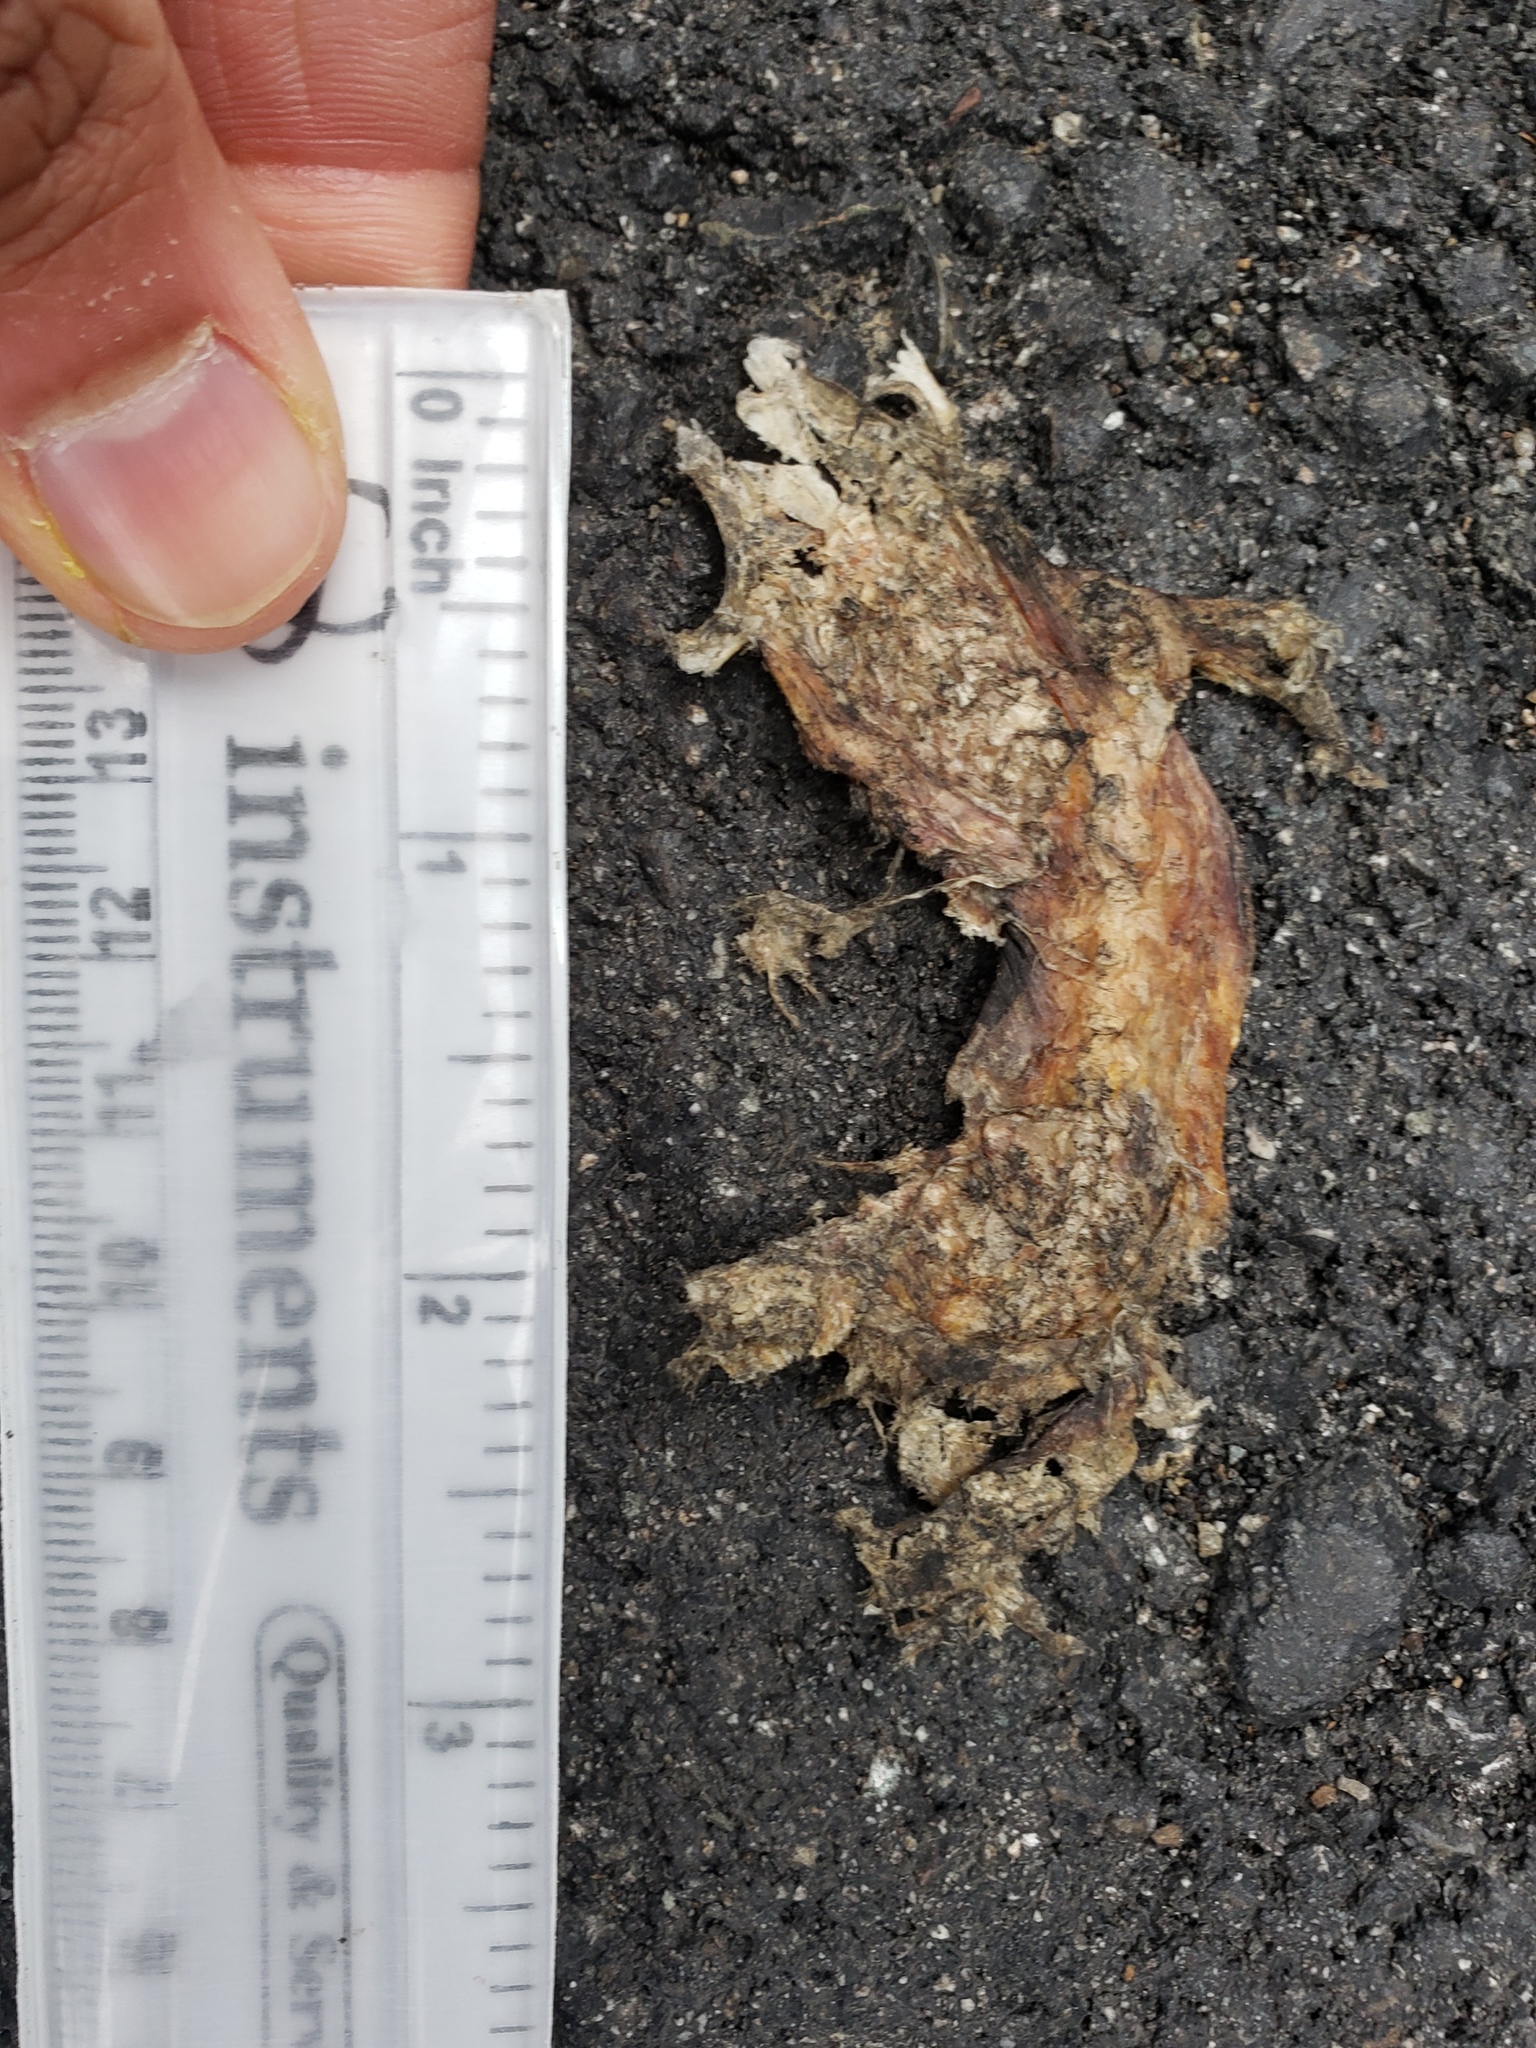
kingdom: Animalia
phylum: Chordata
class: Amphibia
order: Caudata
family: Salamandridae
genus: Taricha
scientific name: Taricha
